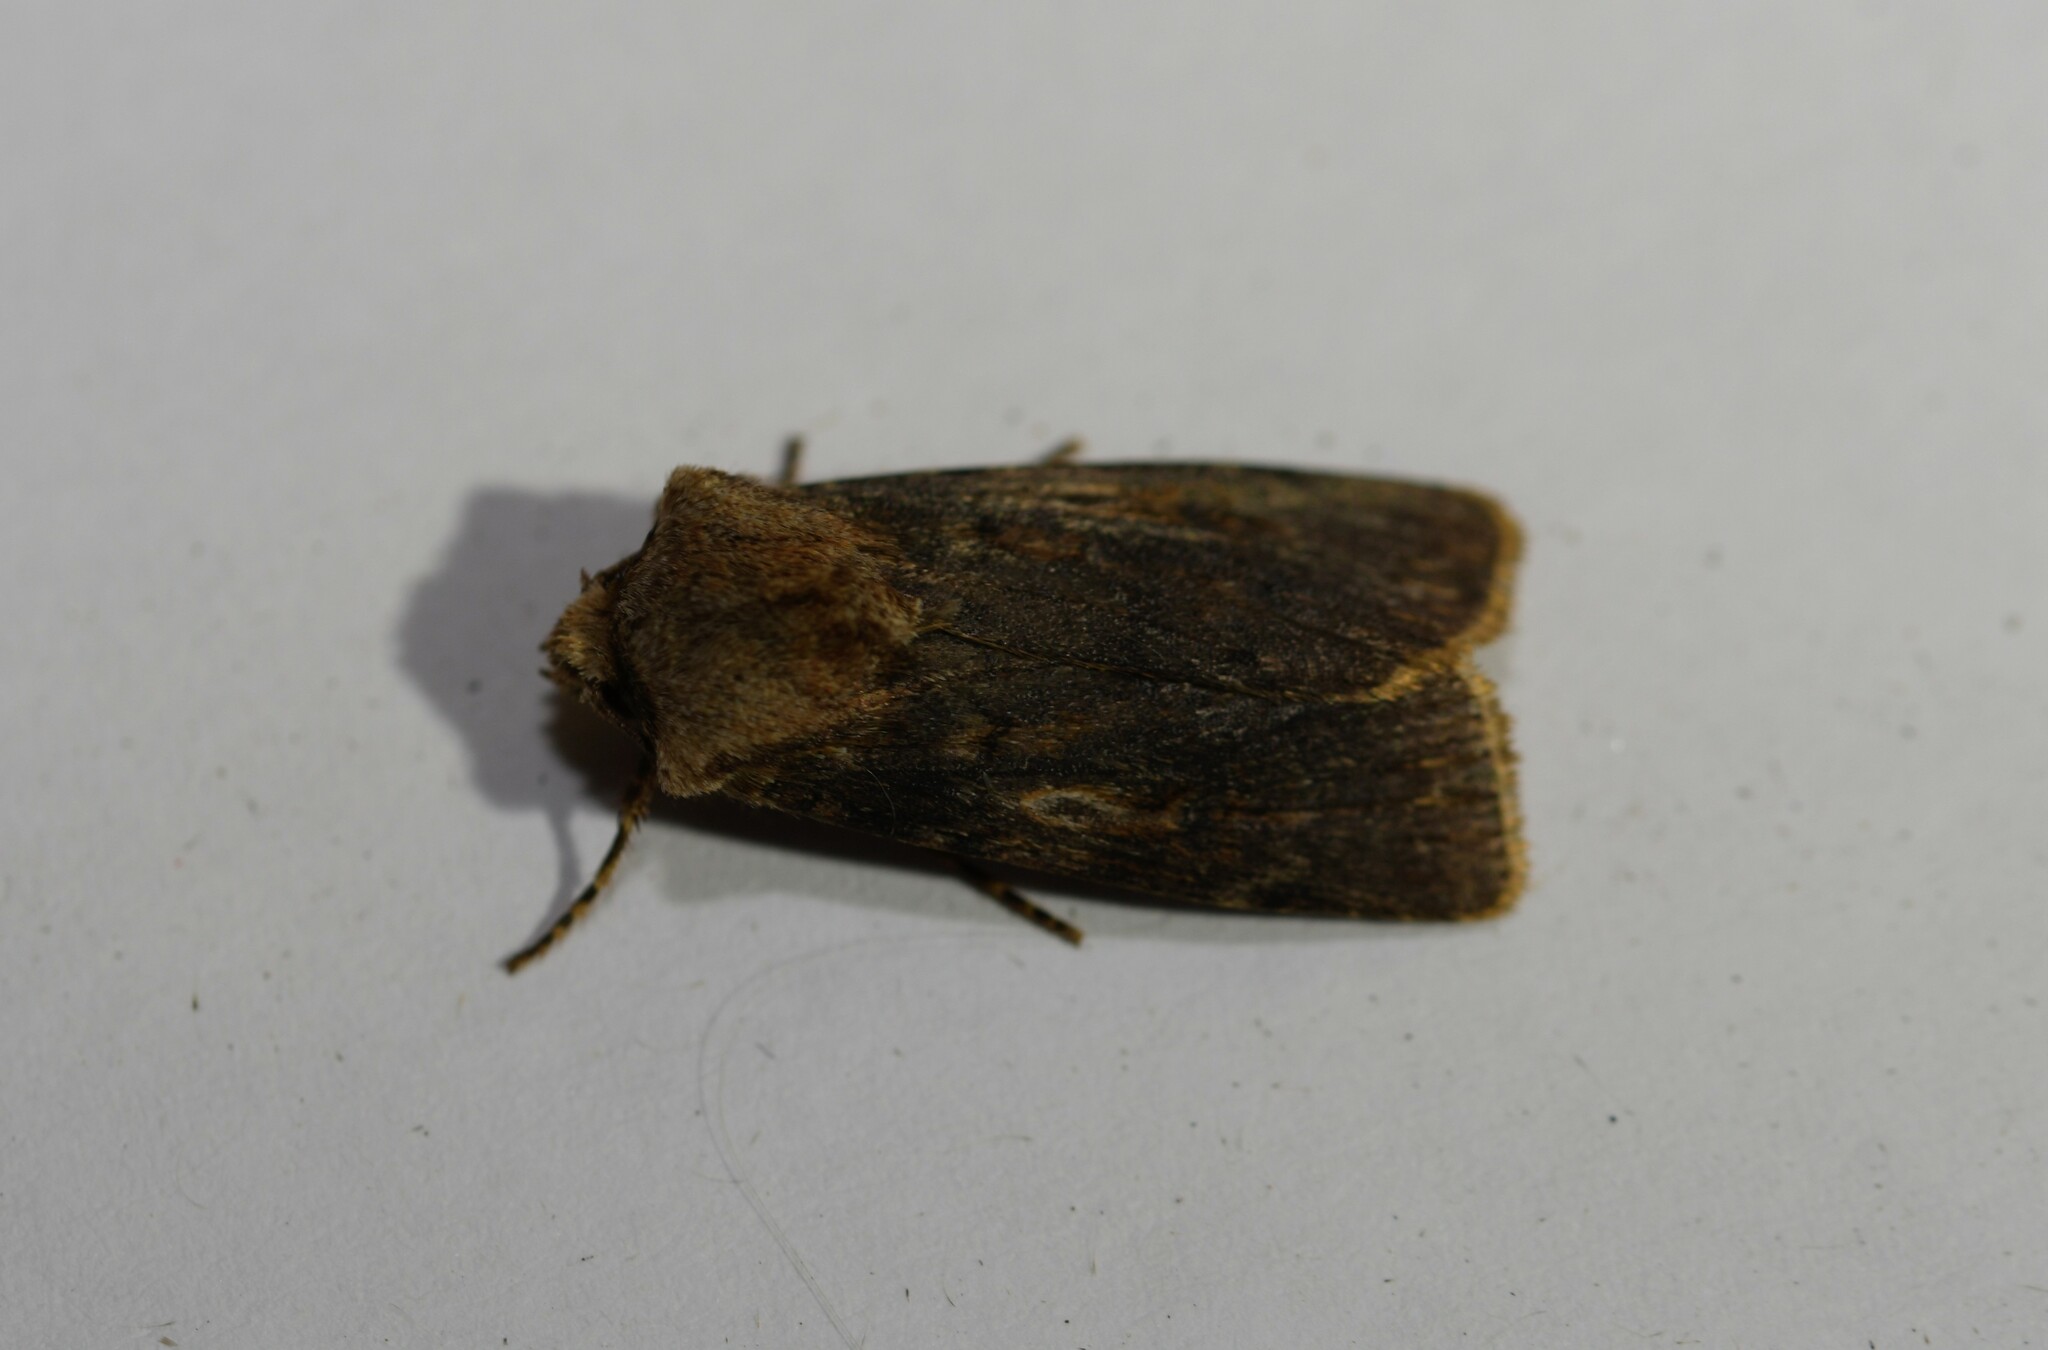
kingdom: Animalia
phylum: Arthropoda
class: Insecta
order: Lepidoptera
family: Noctuidae
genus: Agrotis
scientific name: Agrotis puta
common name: Shuttle-shaped dart
